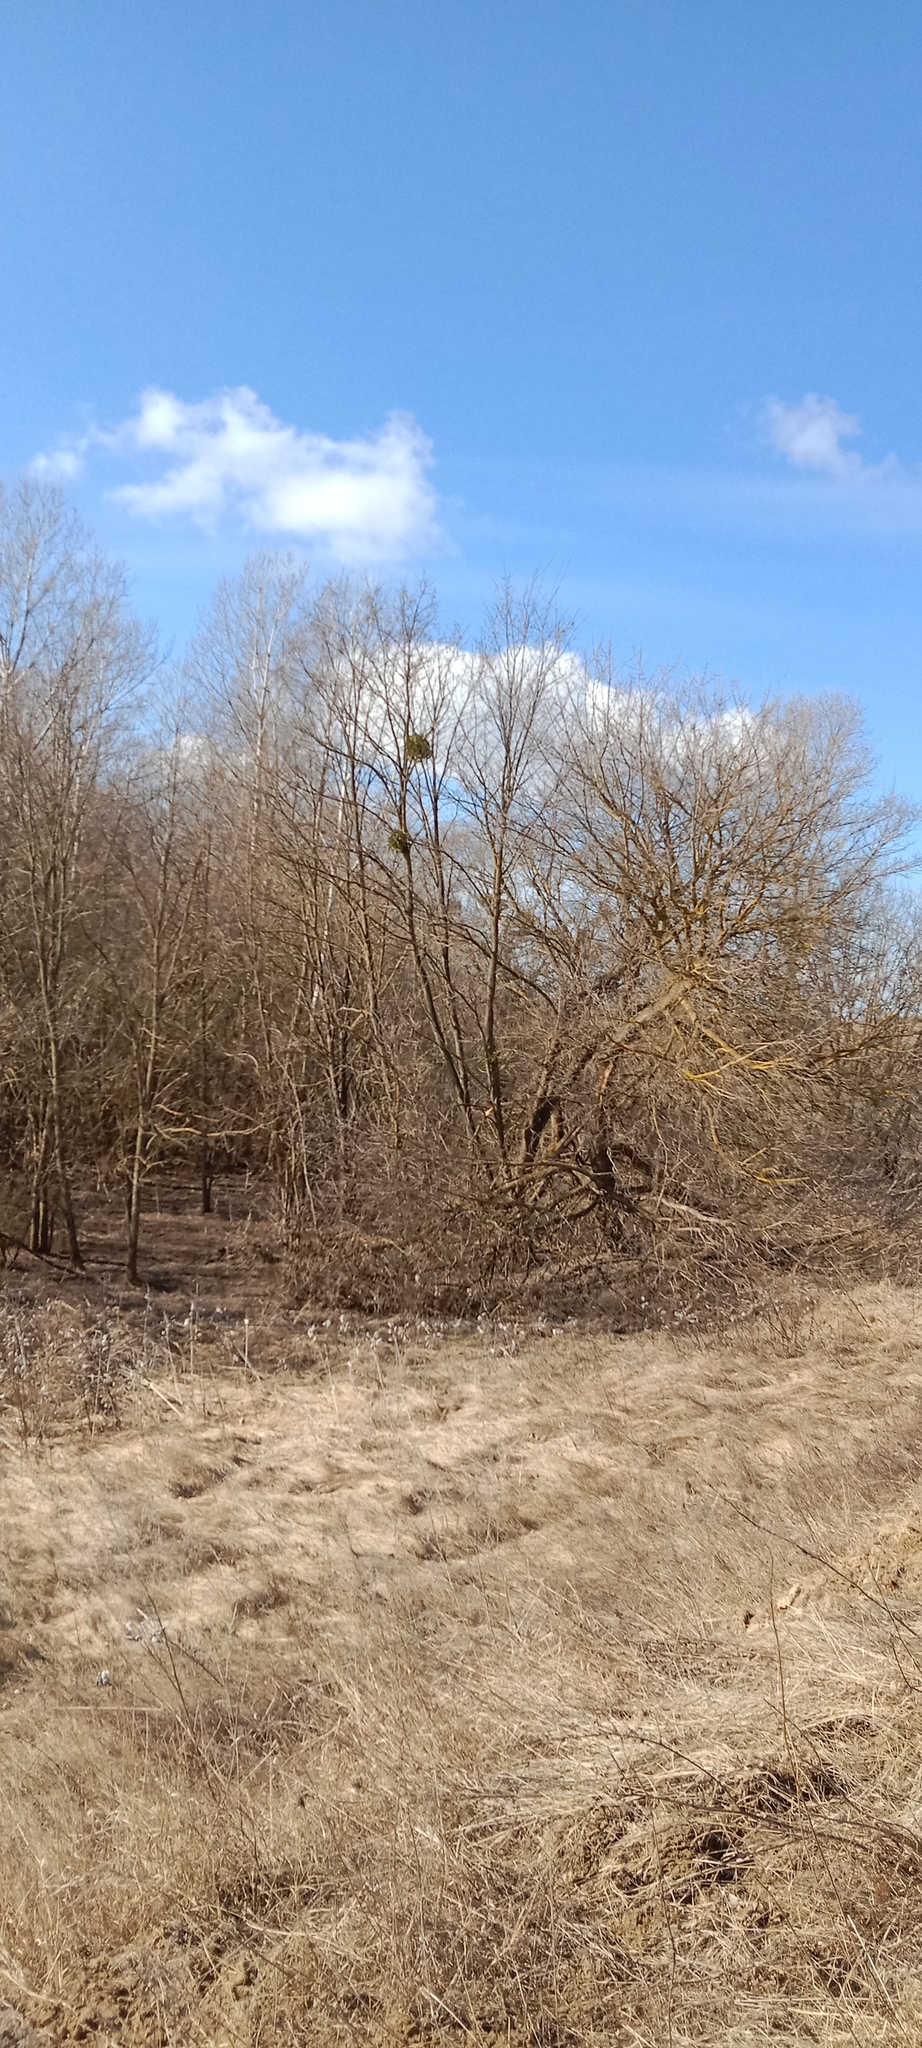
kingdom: Plantae
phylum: Tracheophyta
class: Magnoliopsida
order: Santalales
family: Viscaceae
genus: Viscum
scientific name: Viscum album
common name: Mistletoe
